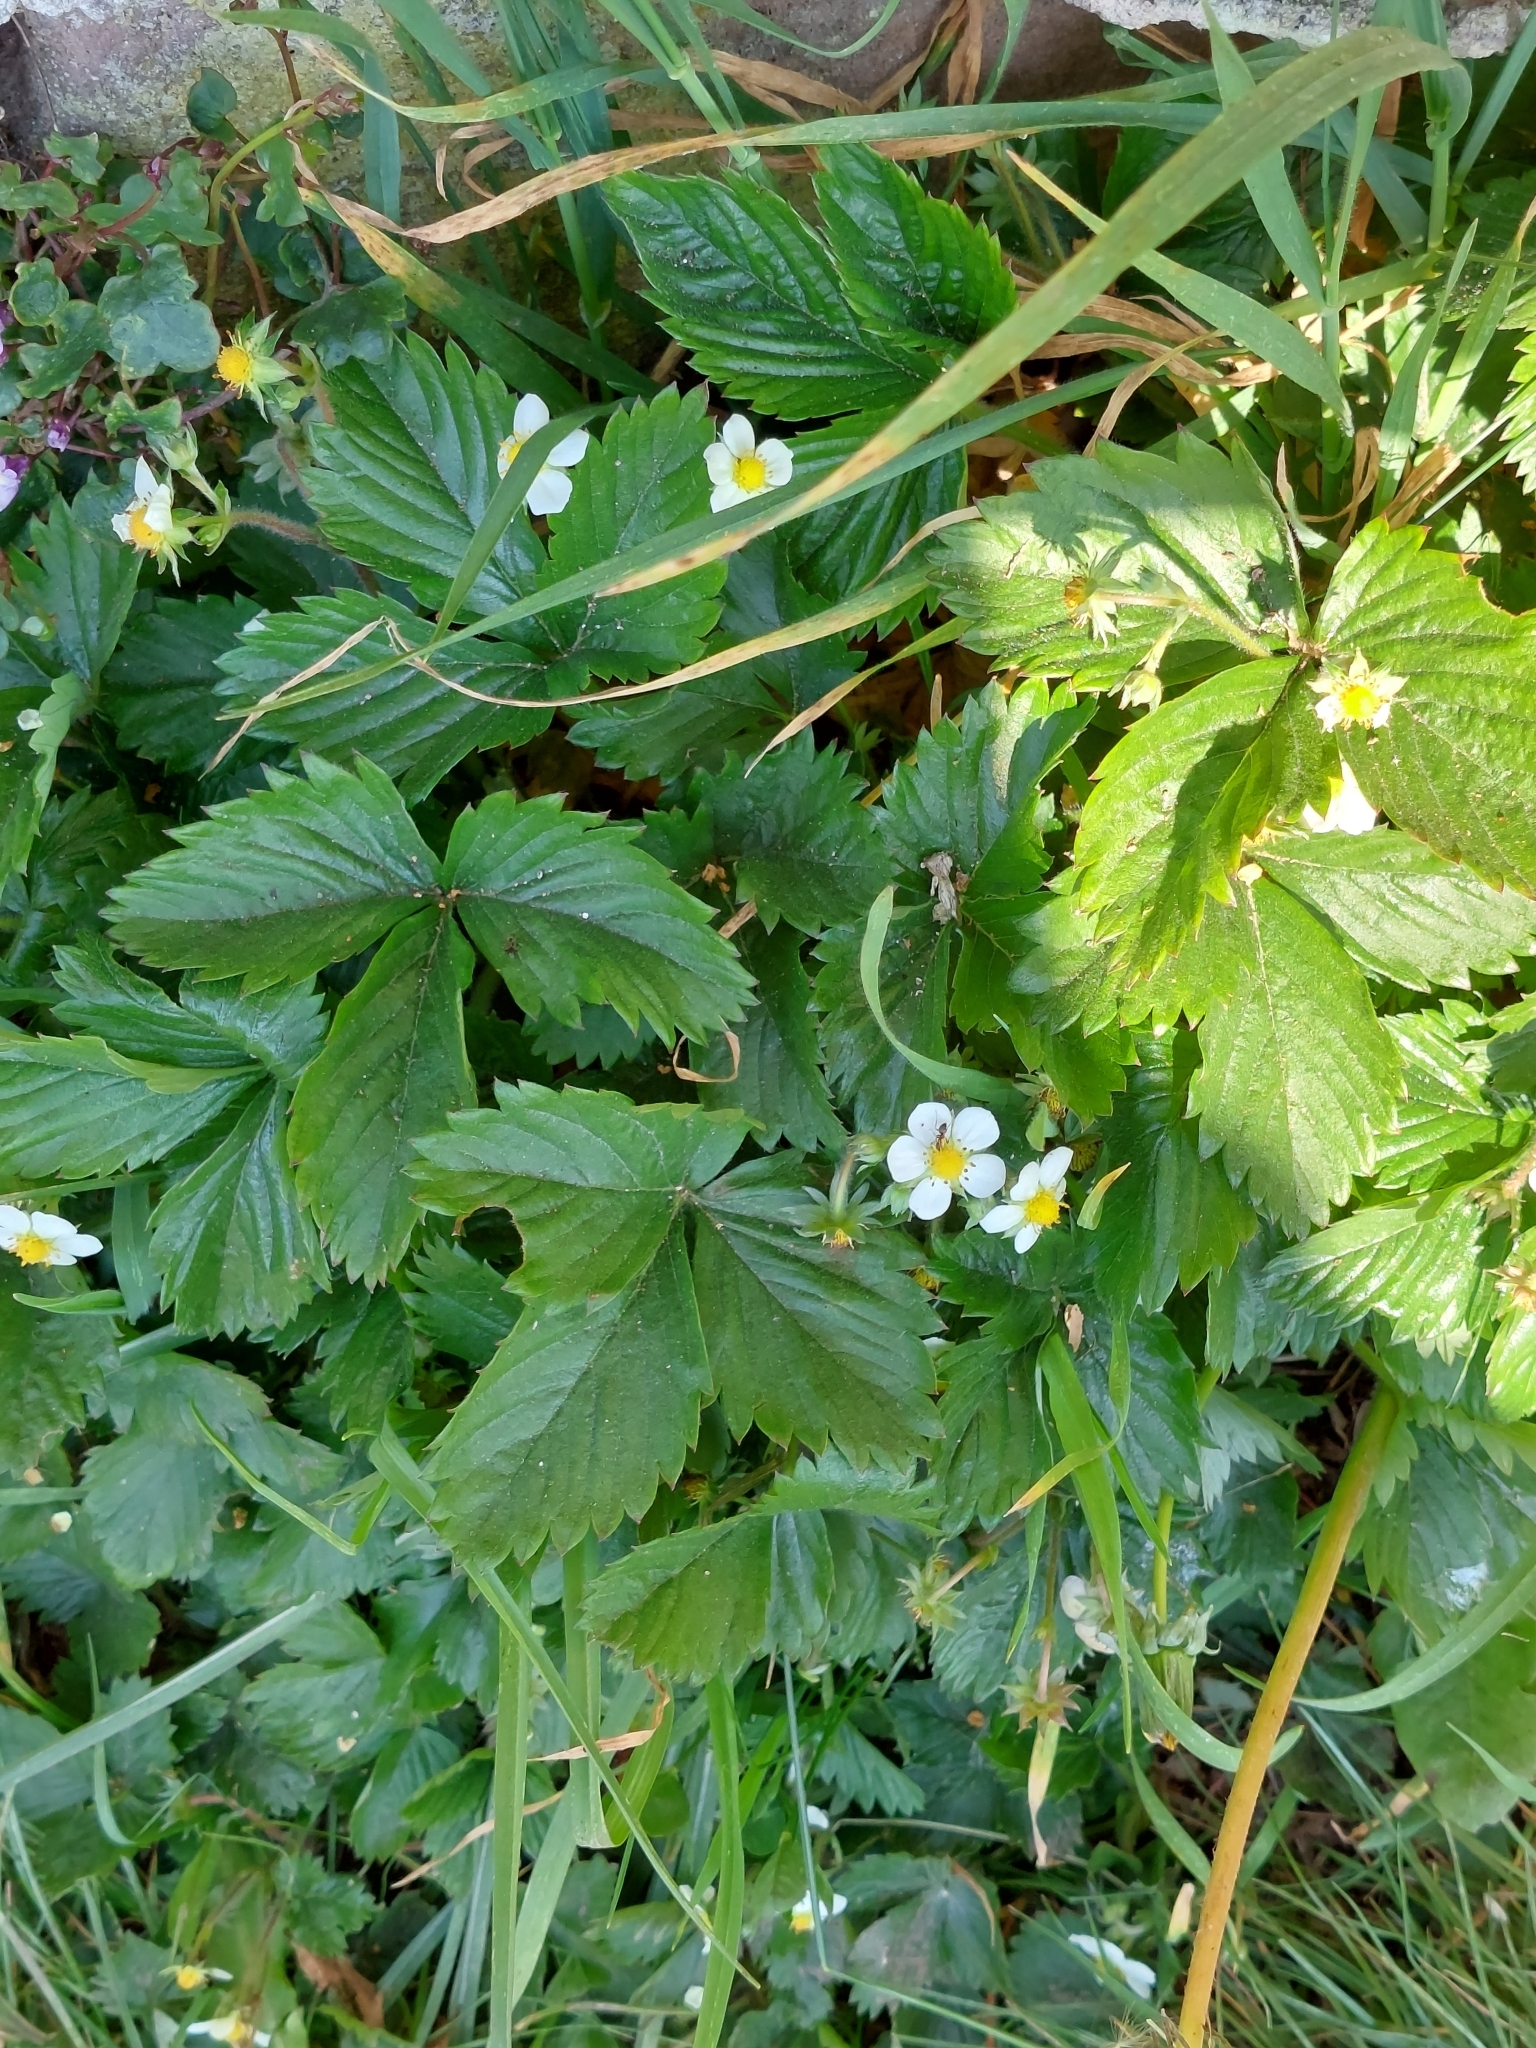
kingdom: Plantae
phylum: Tracheophyta
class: Magnoliopsida
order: Rosales
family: Rosaceae
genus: Fragaria
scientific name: Fragaria vesca
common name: Wild strawberry
